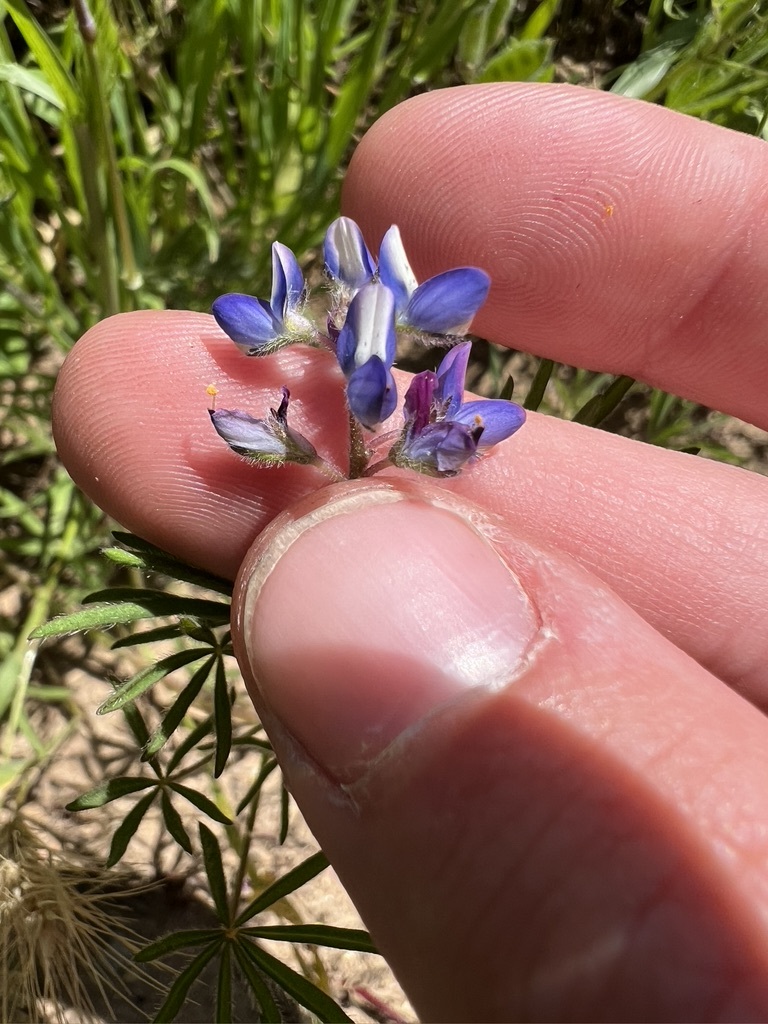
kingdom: Plantae
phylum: Tracheophyta
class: Magnoliopsida
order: Fabales
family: Fabaceae
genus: Lupinus
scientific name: Lupinus bicolor
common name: Miniature lupine
